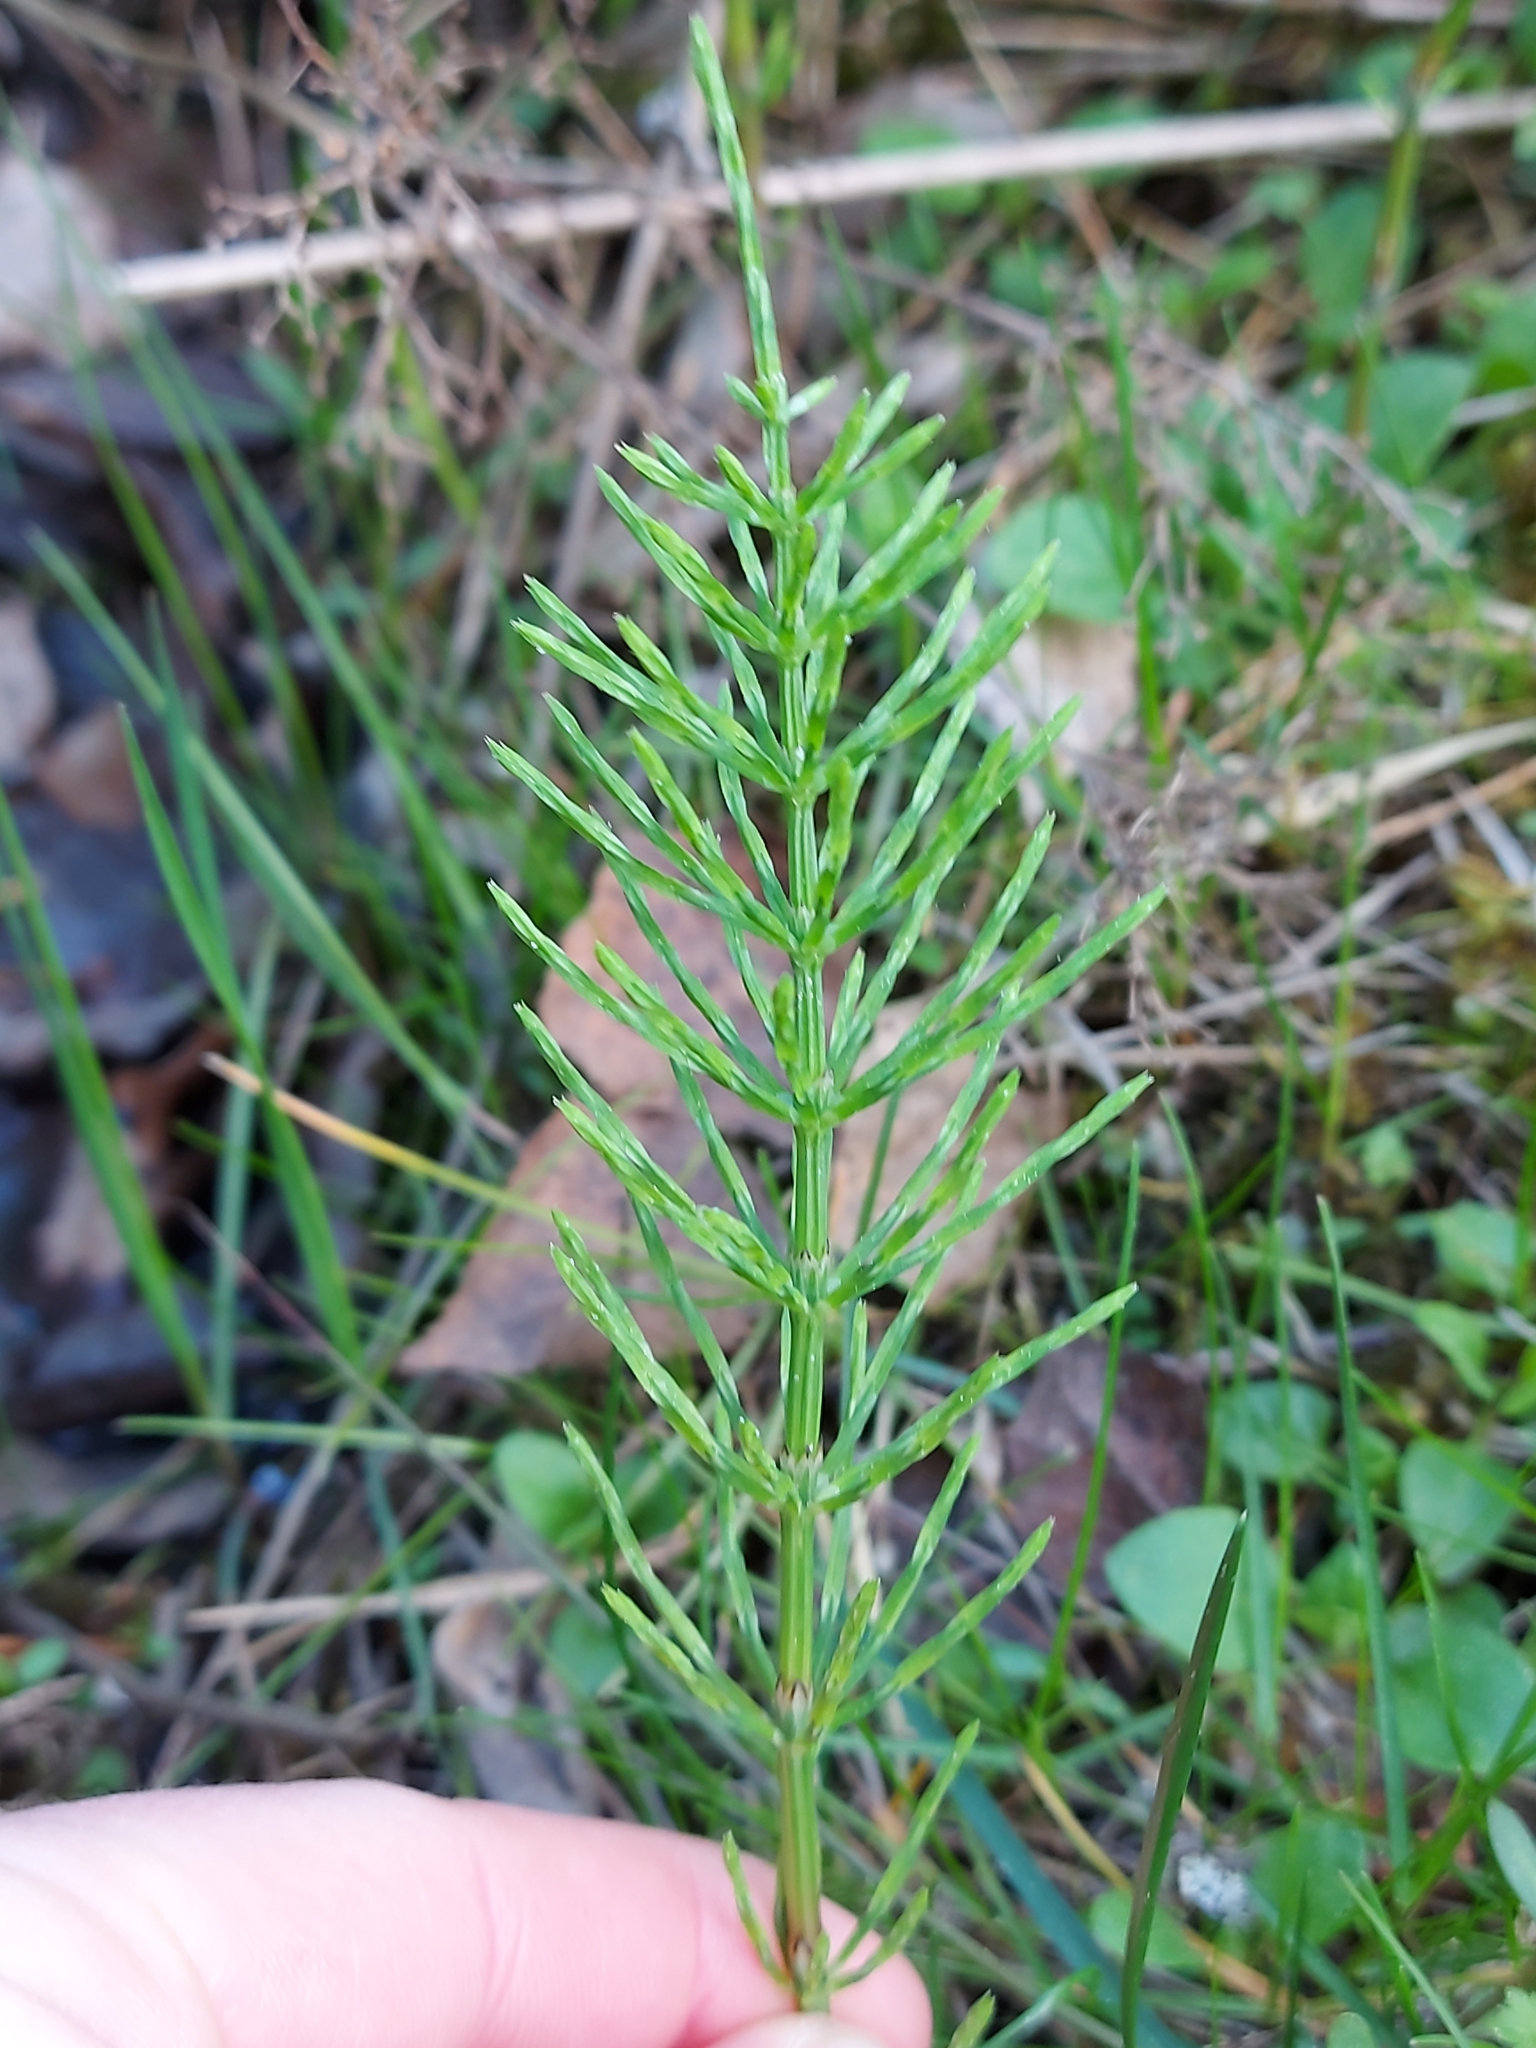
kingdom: Plantae
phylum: Tracheophyta
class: Polypodiopsida
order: Equisetales
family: Equisetaceae
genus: Equisetum
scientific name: Equisetum arvense
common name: Field horsetail
